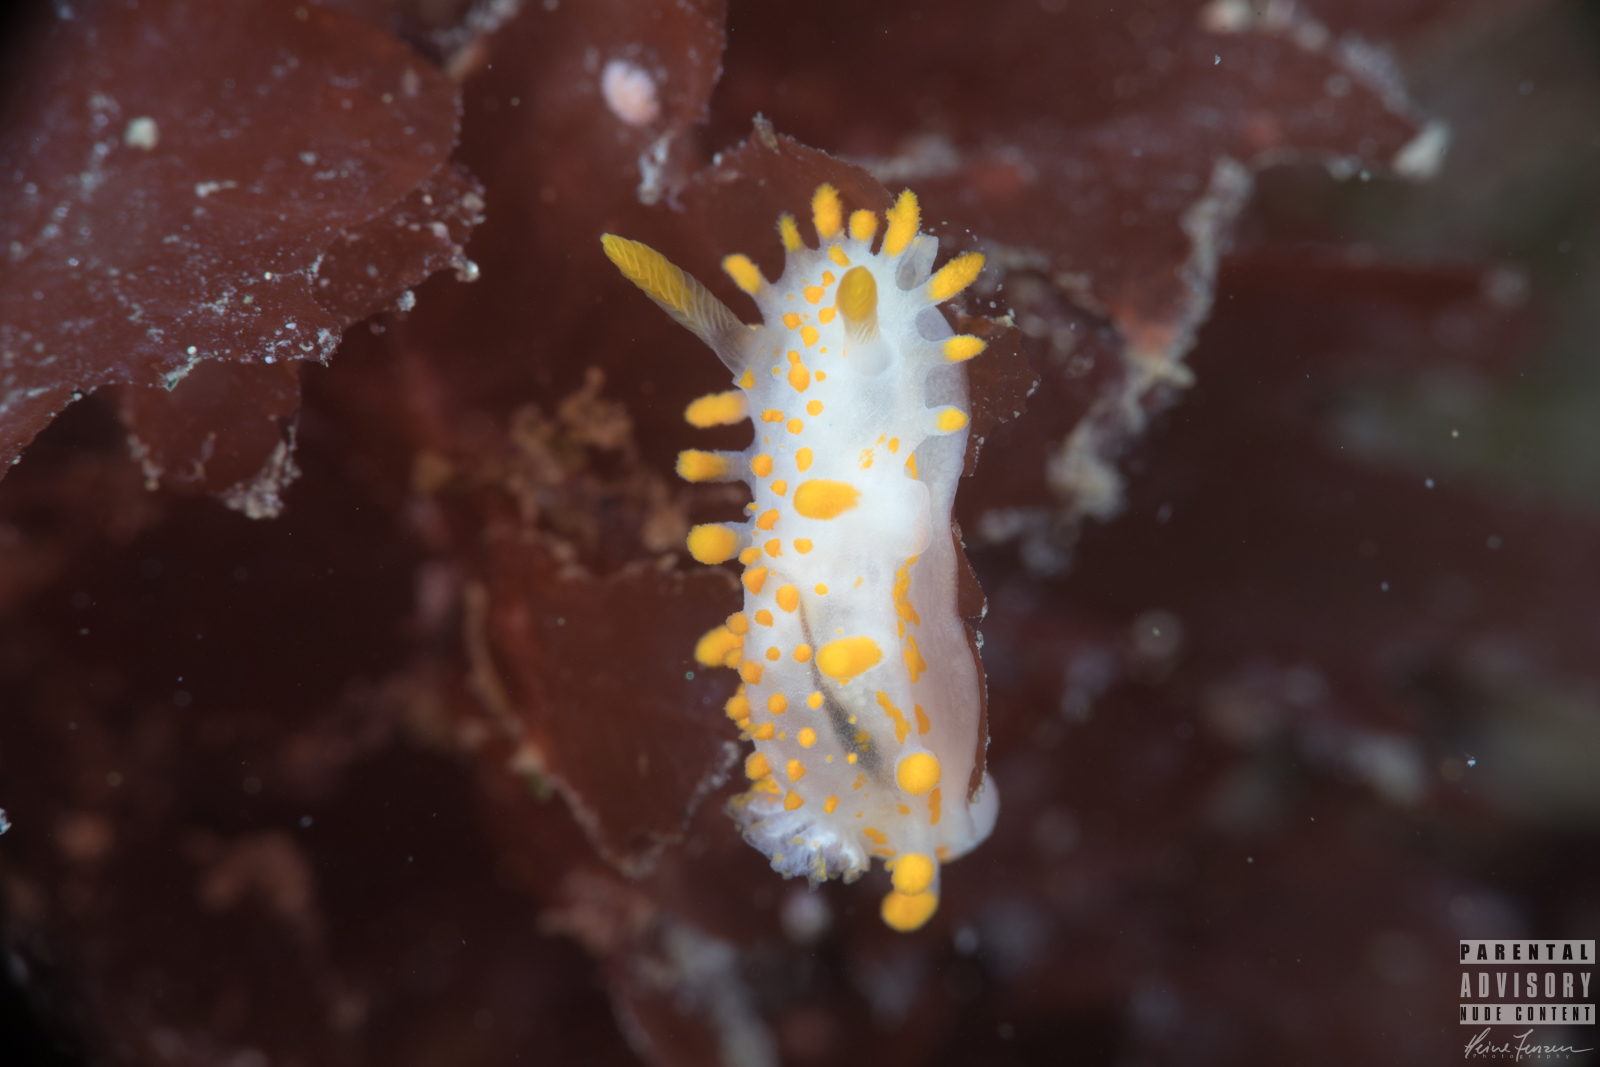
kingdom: Animalia
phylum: Mollusca
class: Gastropoda
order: Nudibranchia
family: Polyceridae
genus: Limacia
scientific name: Limacia clavigera
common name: Orange-clubbed sea slug
